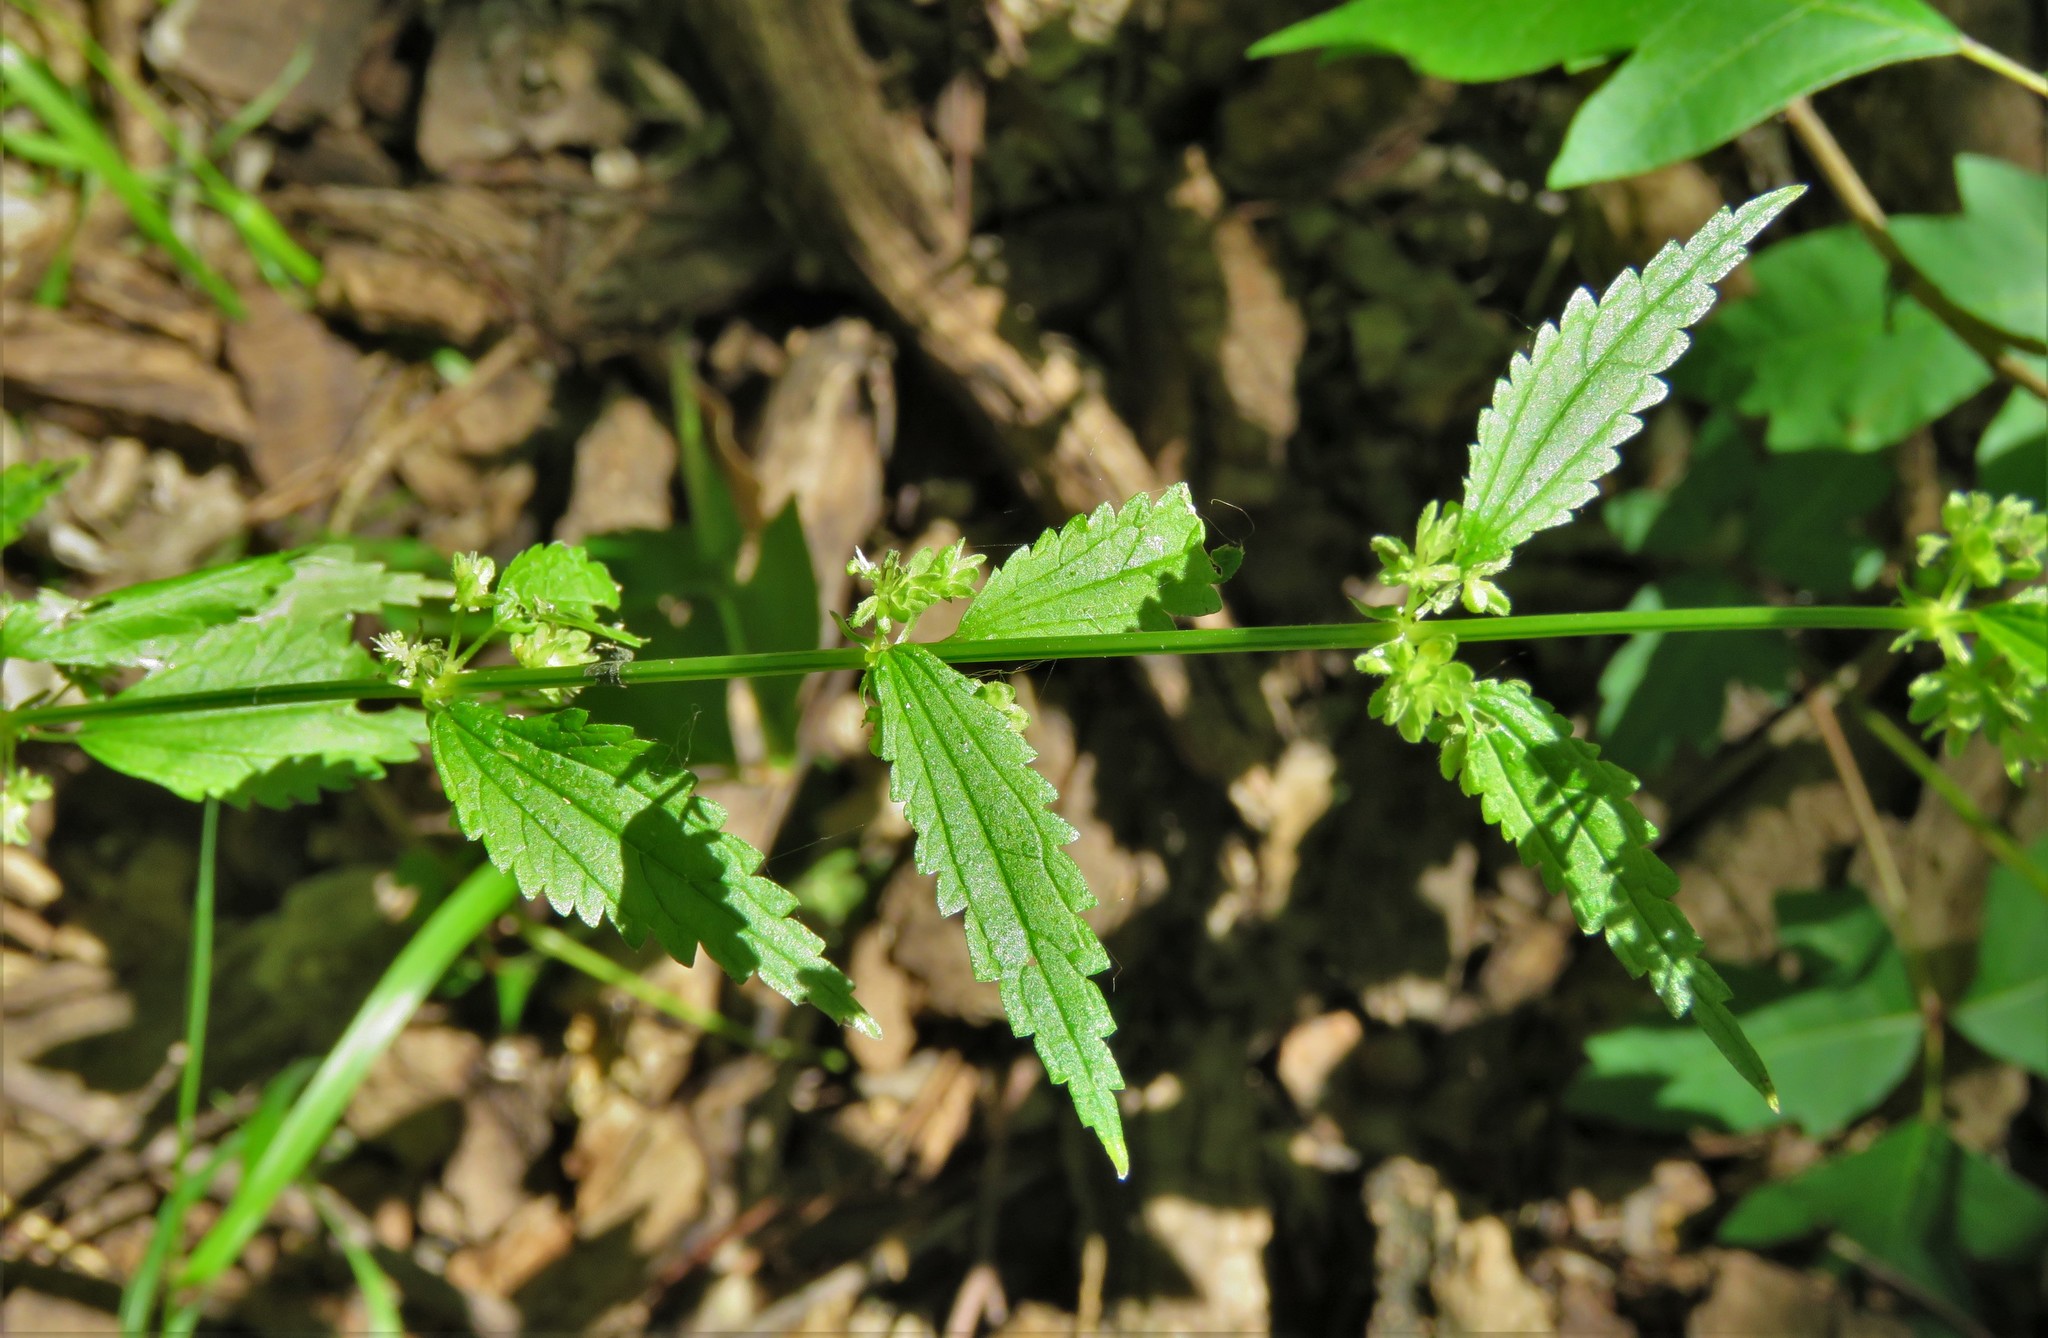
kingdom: Plantae
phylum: Tracheophyta
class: Magnoliopsida
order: Rosales
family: Urticaceae
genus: Urtica
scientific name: Urtica chamaedryoides
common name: Heart-leaf nettle
